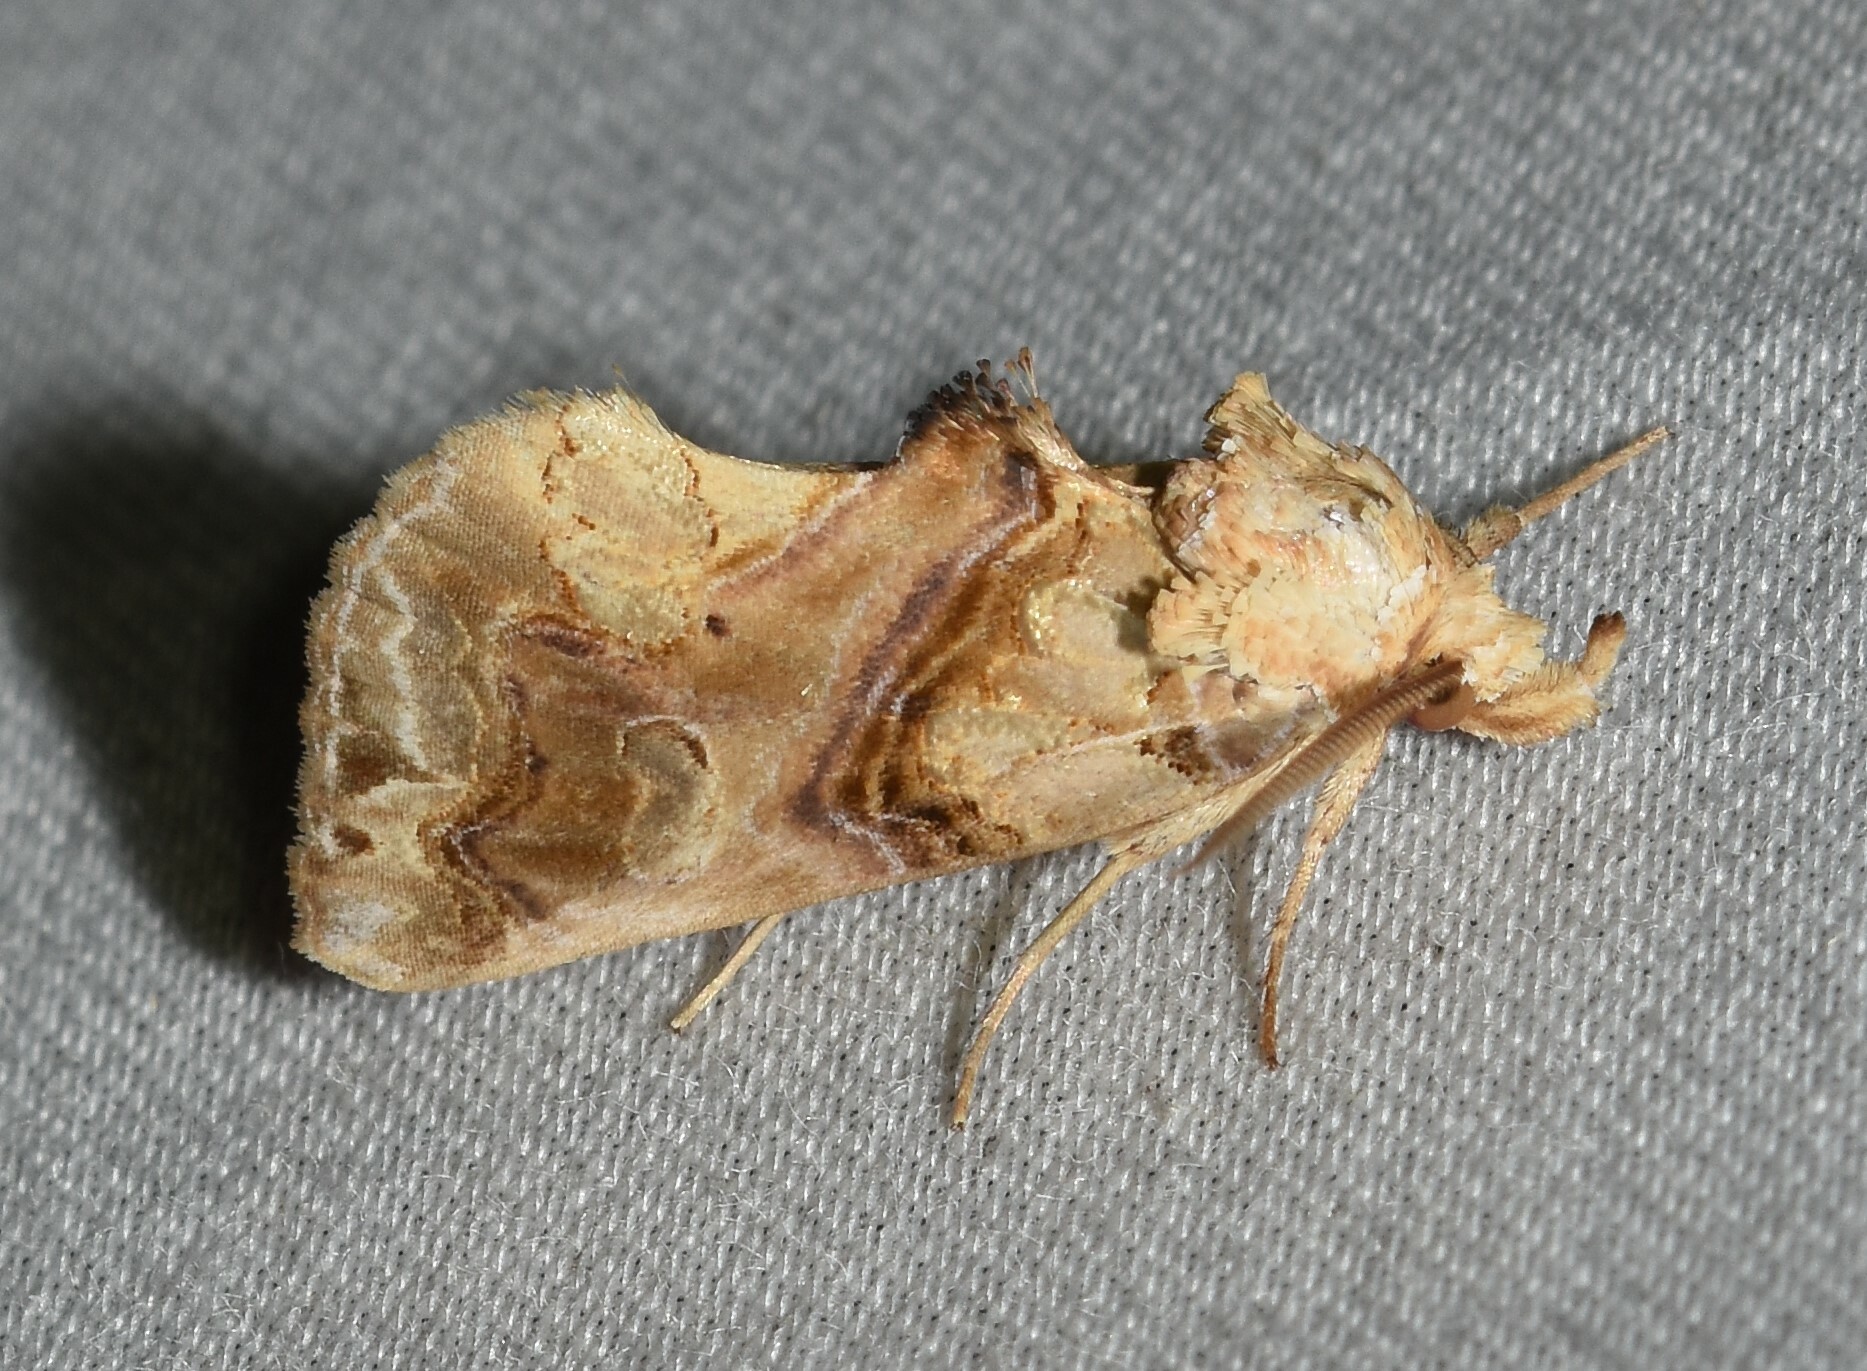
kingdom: Animalia
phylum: Arthropoda
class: Insecta
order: Lepidoptera
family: Erebidae
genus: Plusiodonta
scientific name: Plusiodonta compressipalpis
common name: Moonseed moth
